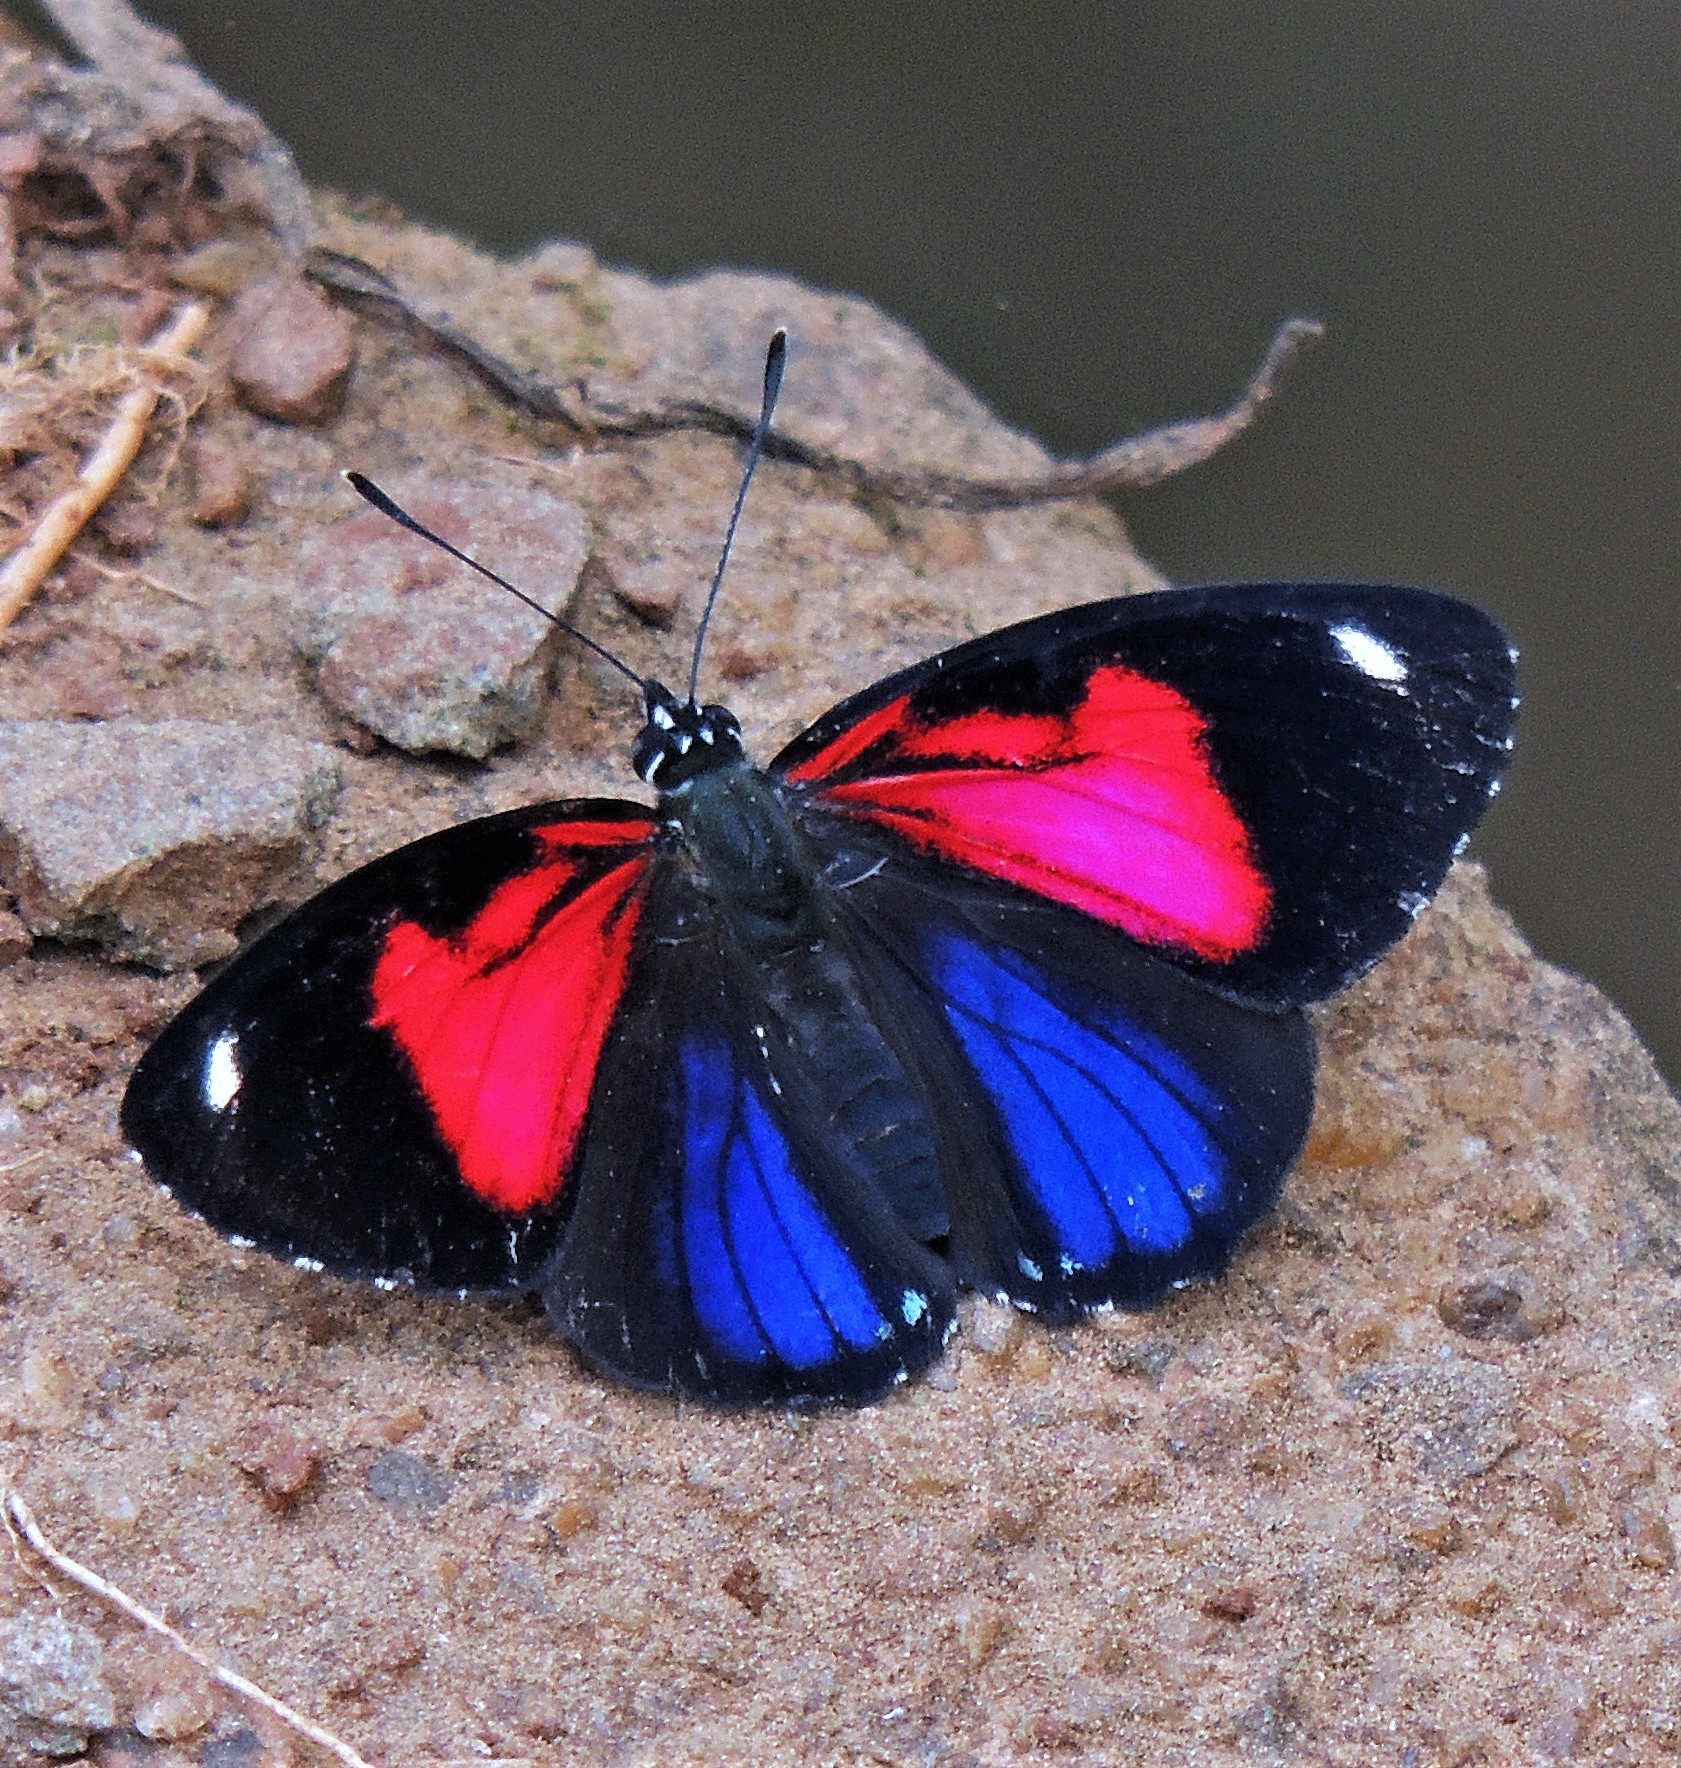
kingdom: Animalia
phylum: Arthropoda
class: Insecta
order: Lepidoptera
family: Nymphalidae
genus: Catagramma
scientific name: Catagramma pyracmon
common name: Google-eyed eighty-eight
